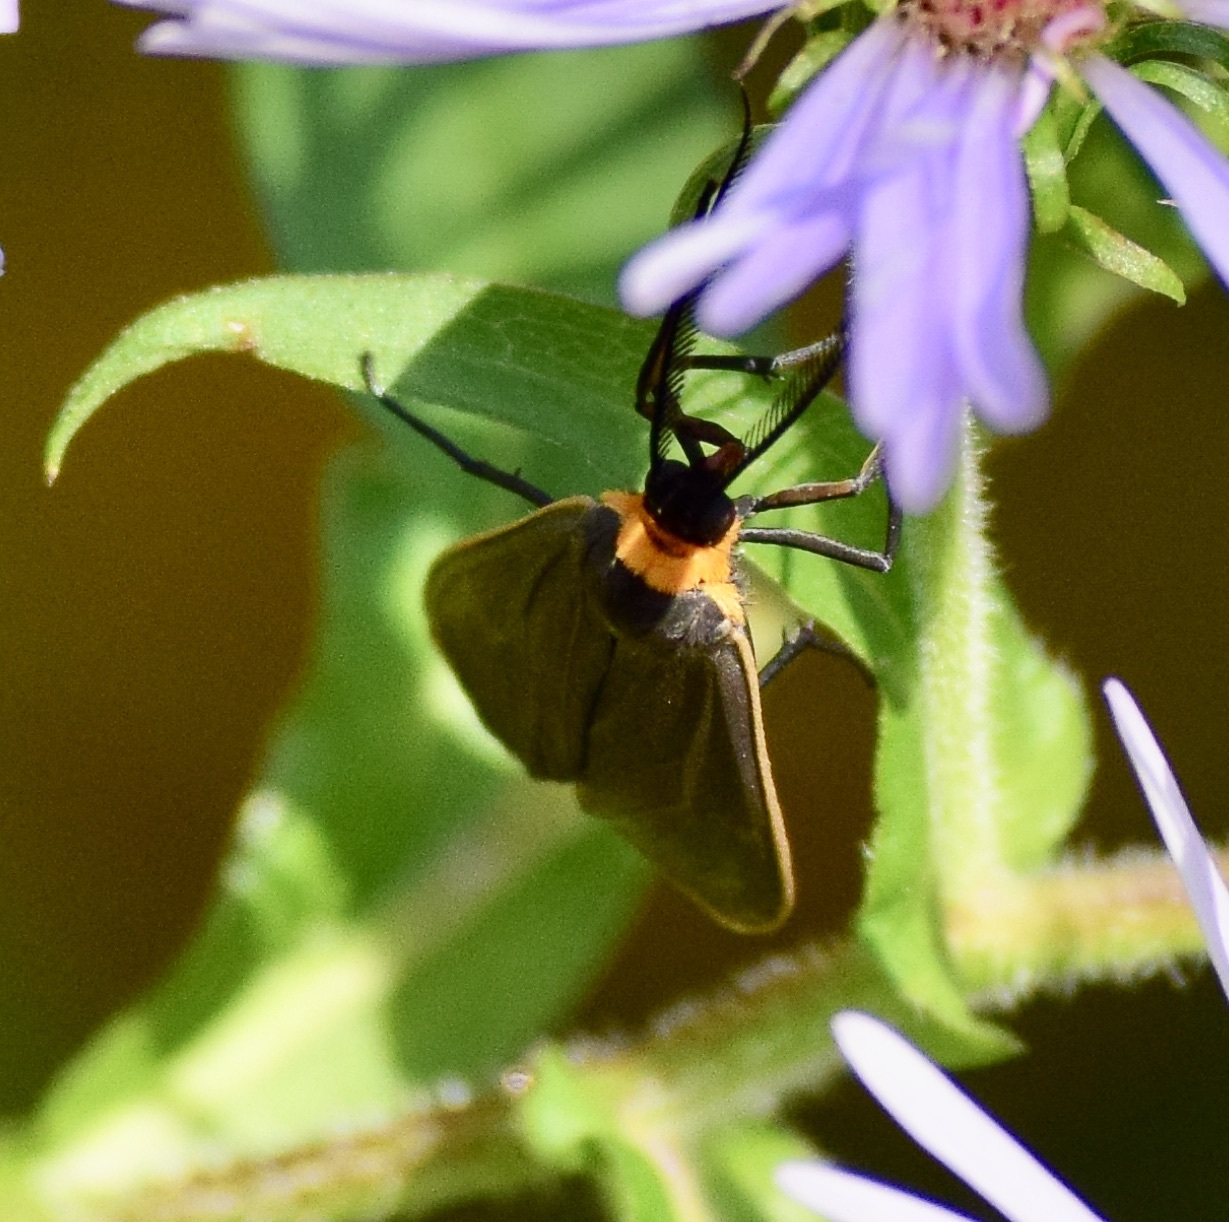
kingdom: Animalia
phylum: Arthropoda
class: Insecta
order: Lepidoptera
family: Erebidae
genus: Cisseps
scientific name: Cisseps fulvicollis
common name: Yellow-collared scape moth
